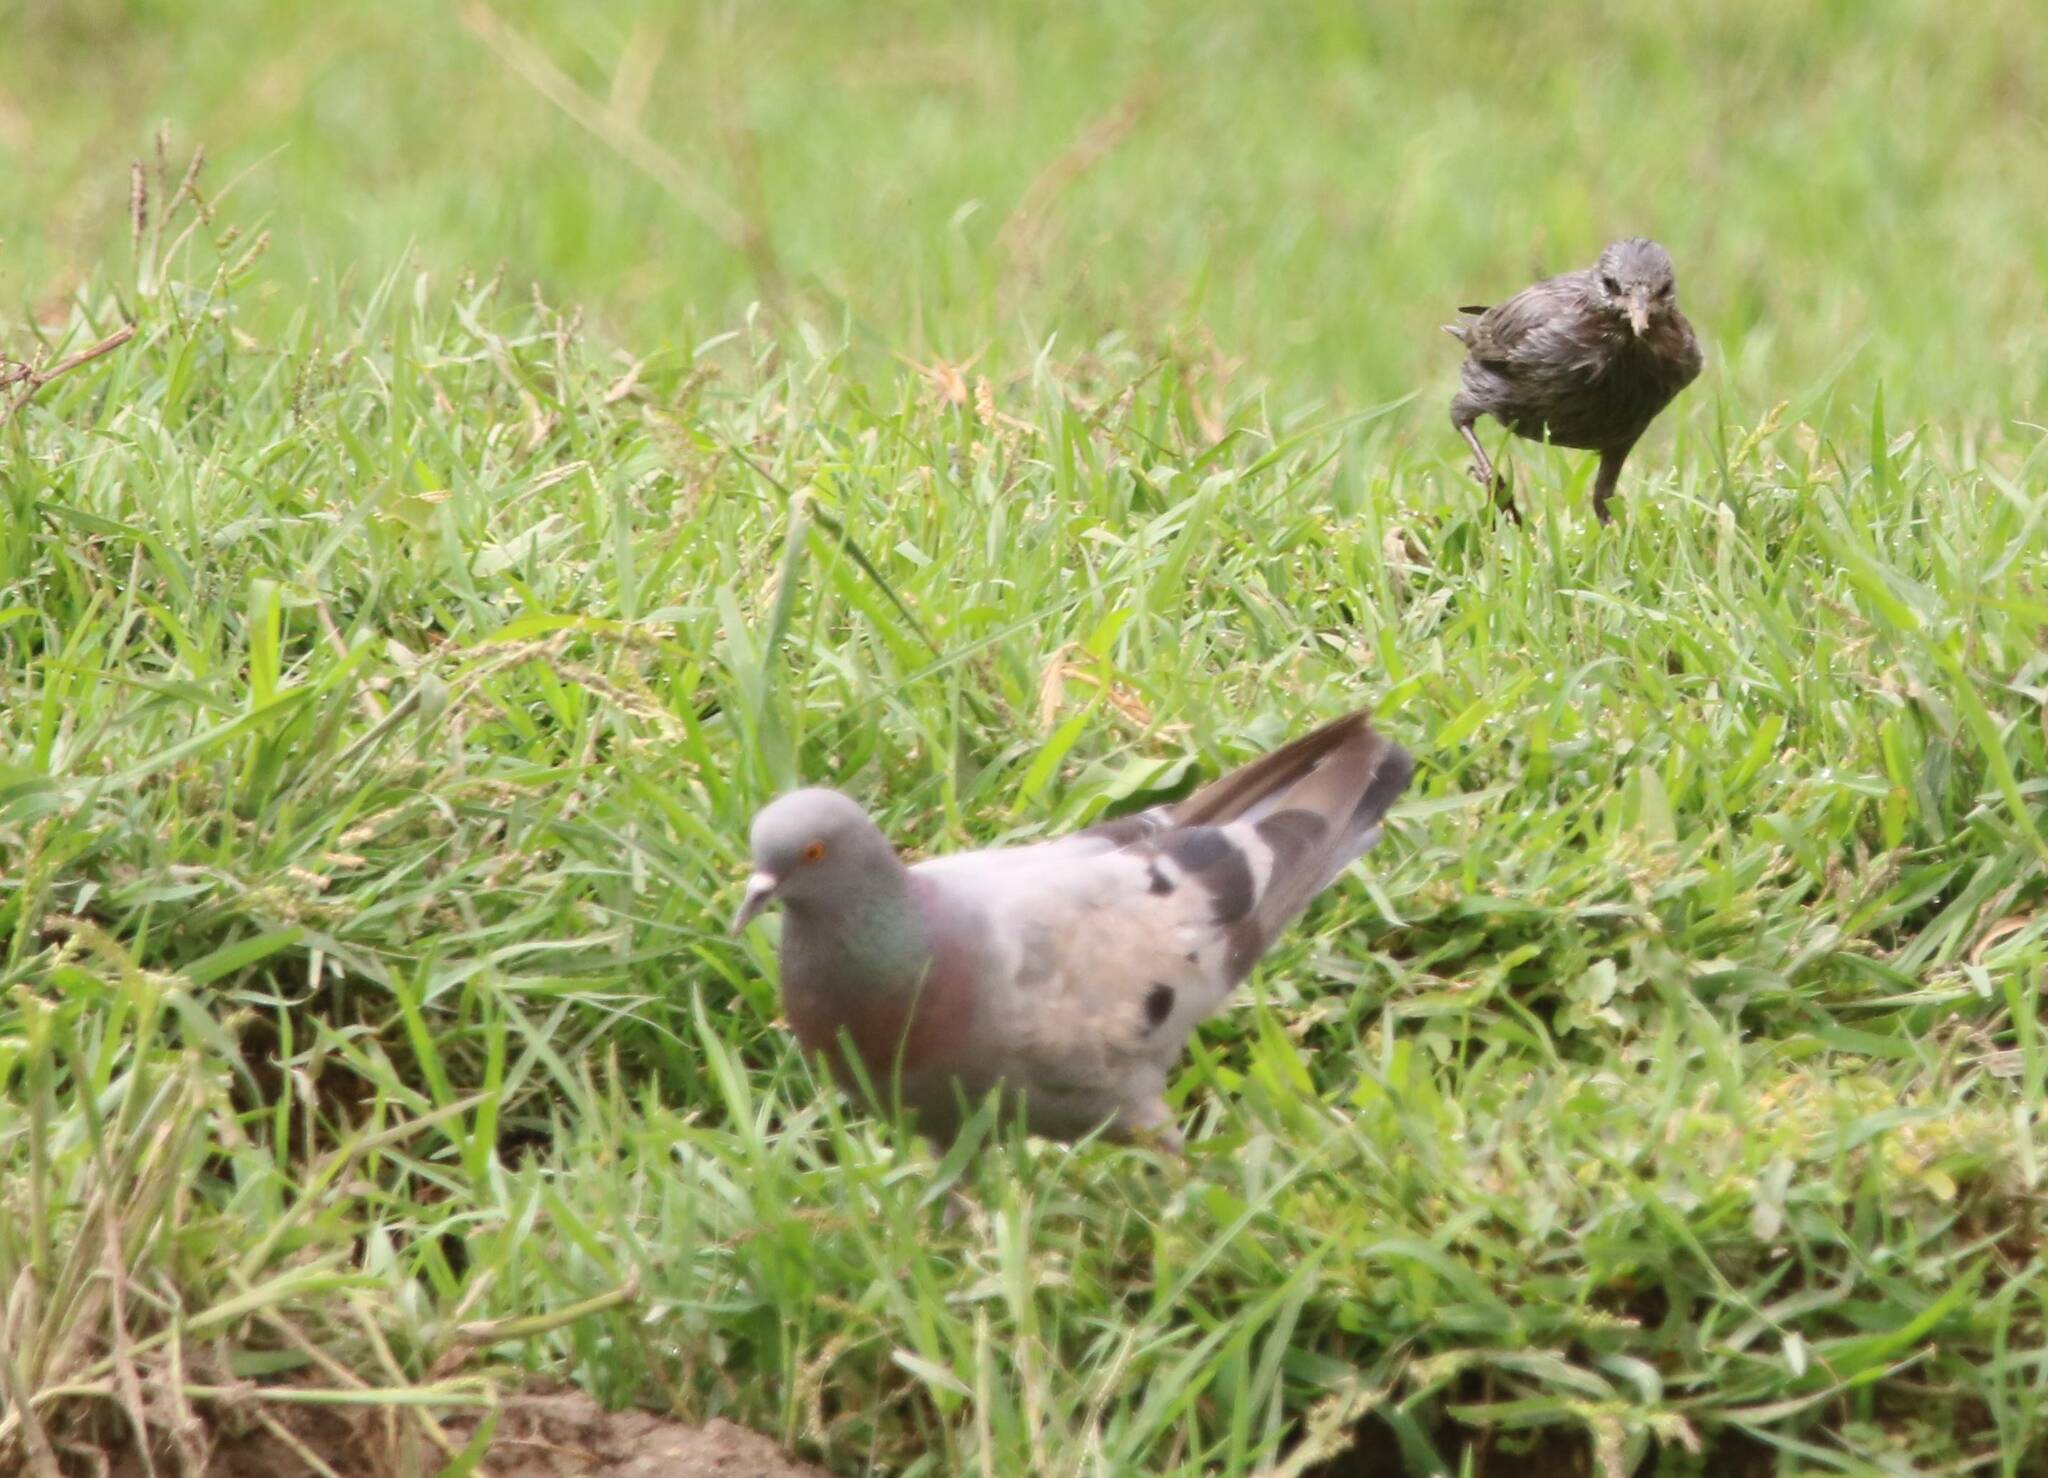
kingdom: Animalia
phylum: Chordata
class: Aves
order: Columbiformes
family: Columbidae
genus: Columba
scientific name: Columba livia
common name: Rock pigeon
